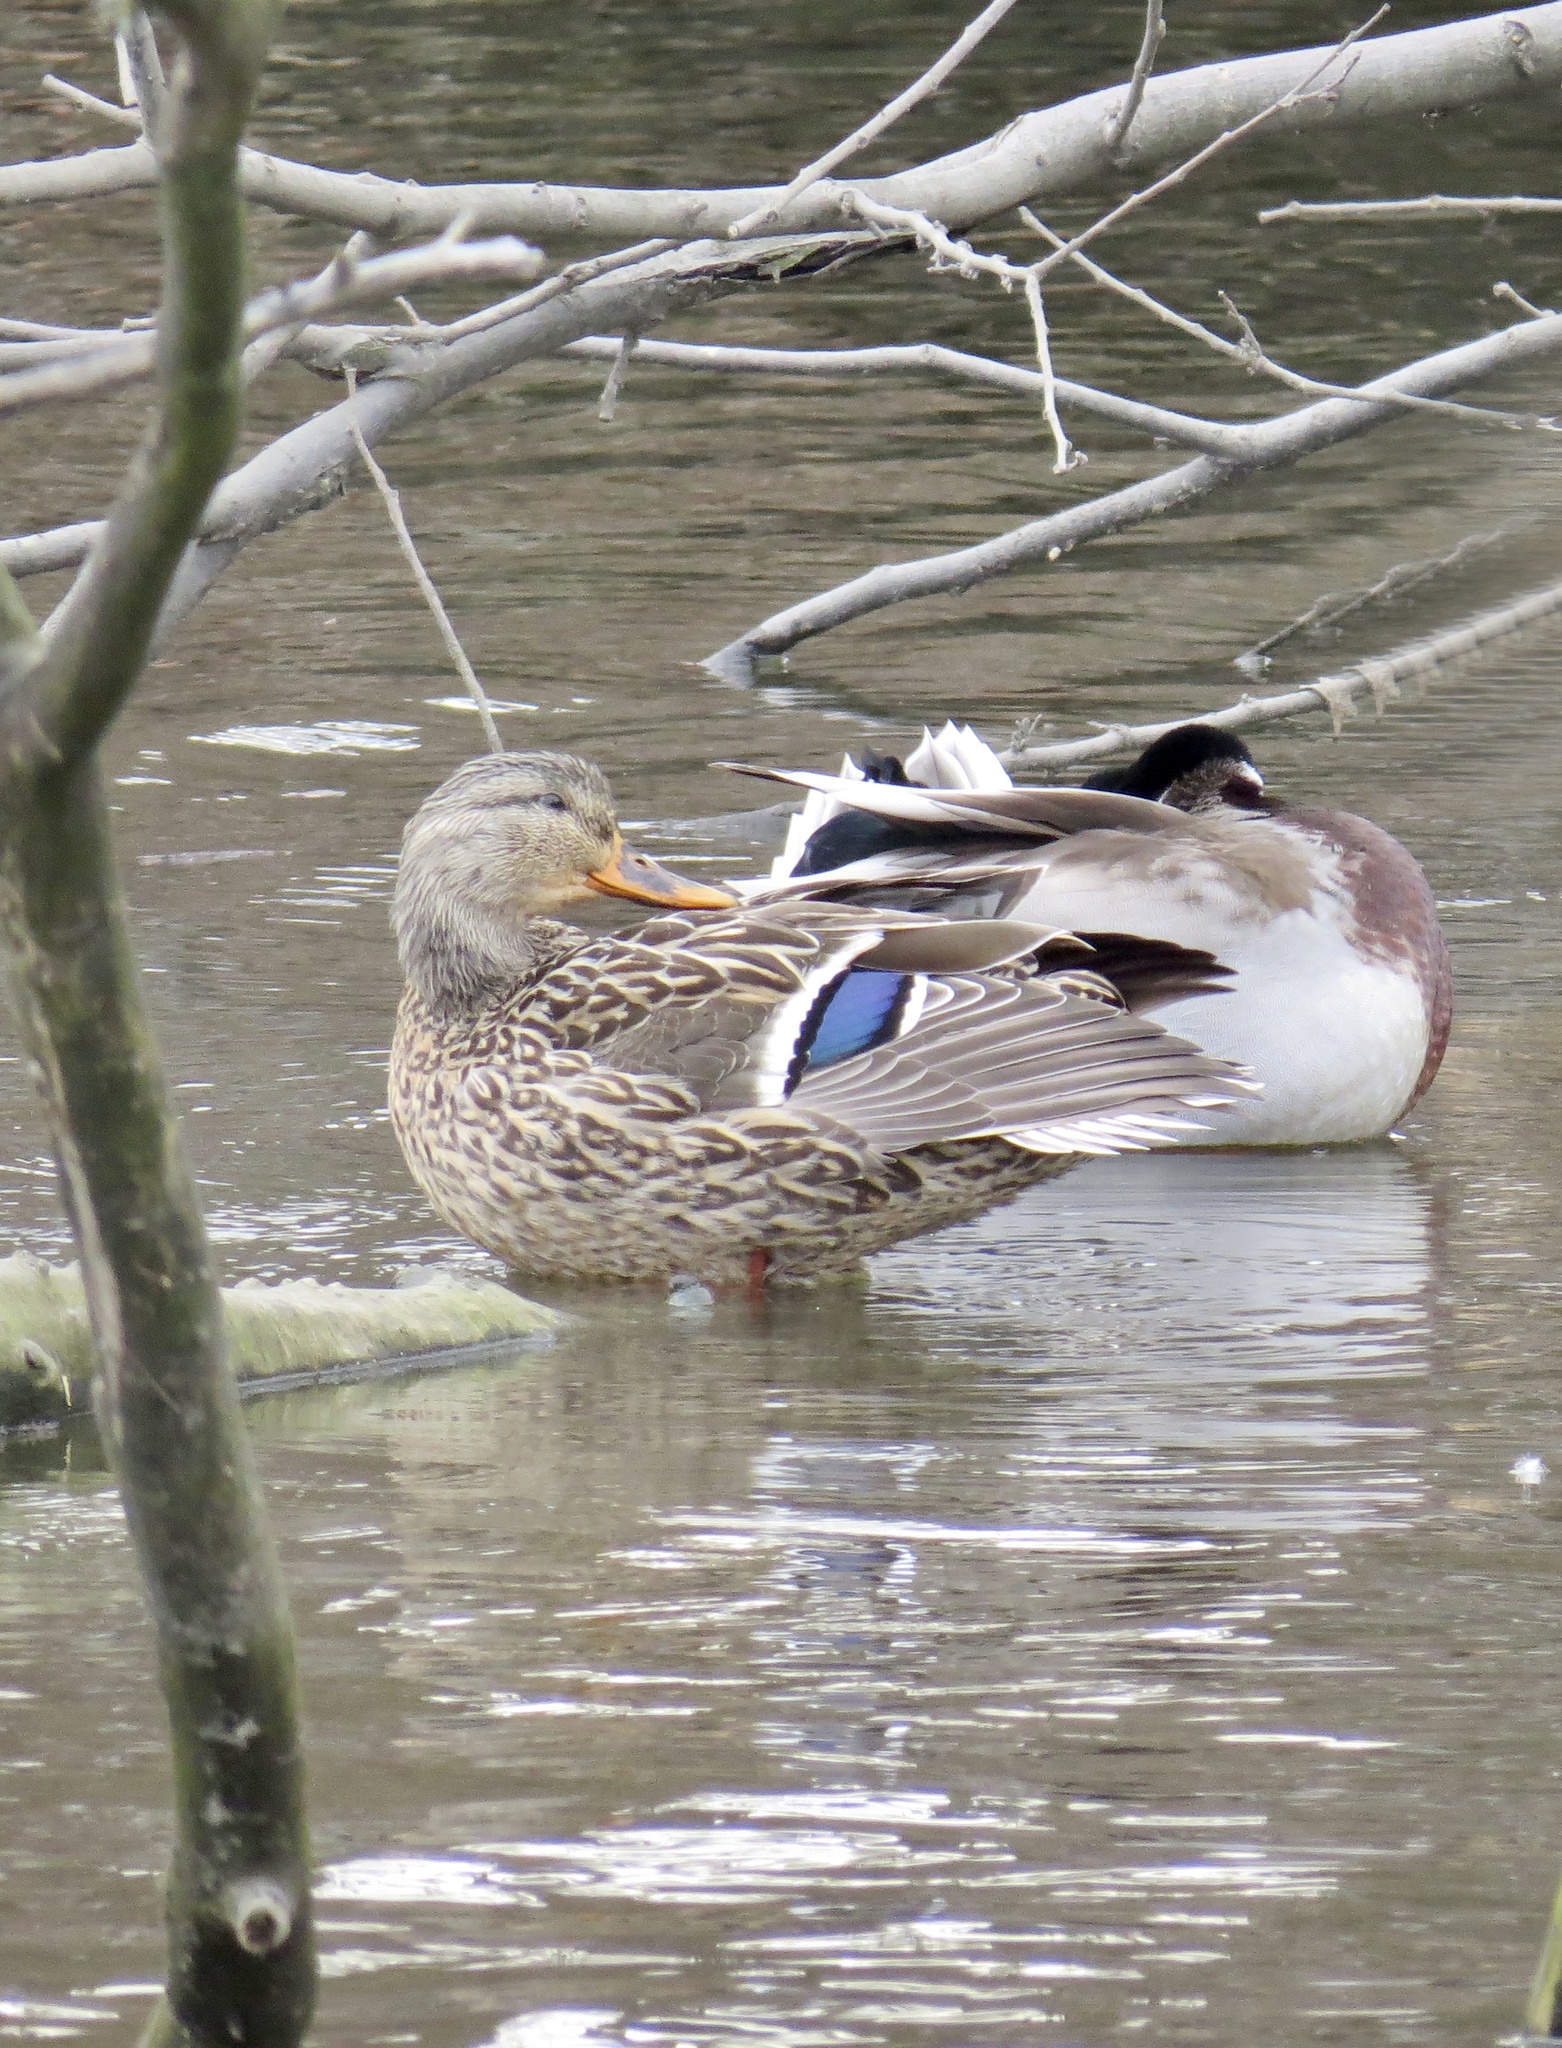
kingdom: Animalia
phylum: Chordata
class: Aves
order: Anseriformes
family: Anatidae
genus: Anas
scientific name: Anas platyrhynchos
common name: Mallard
